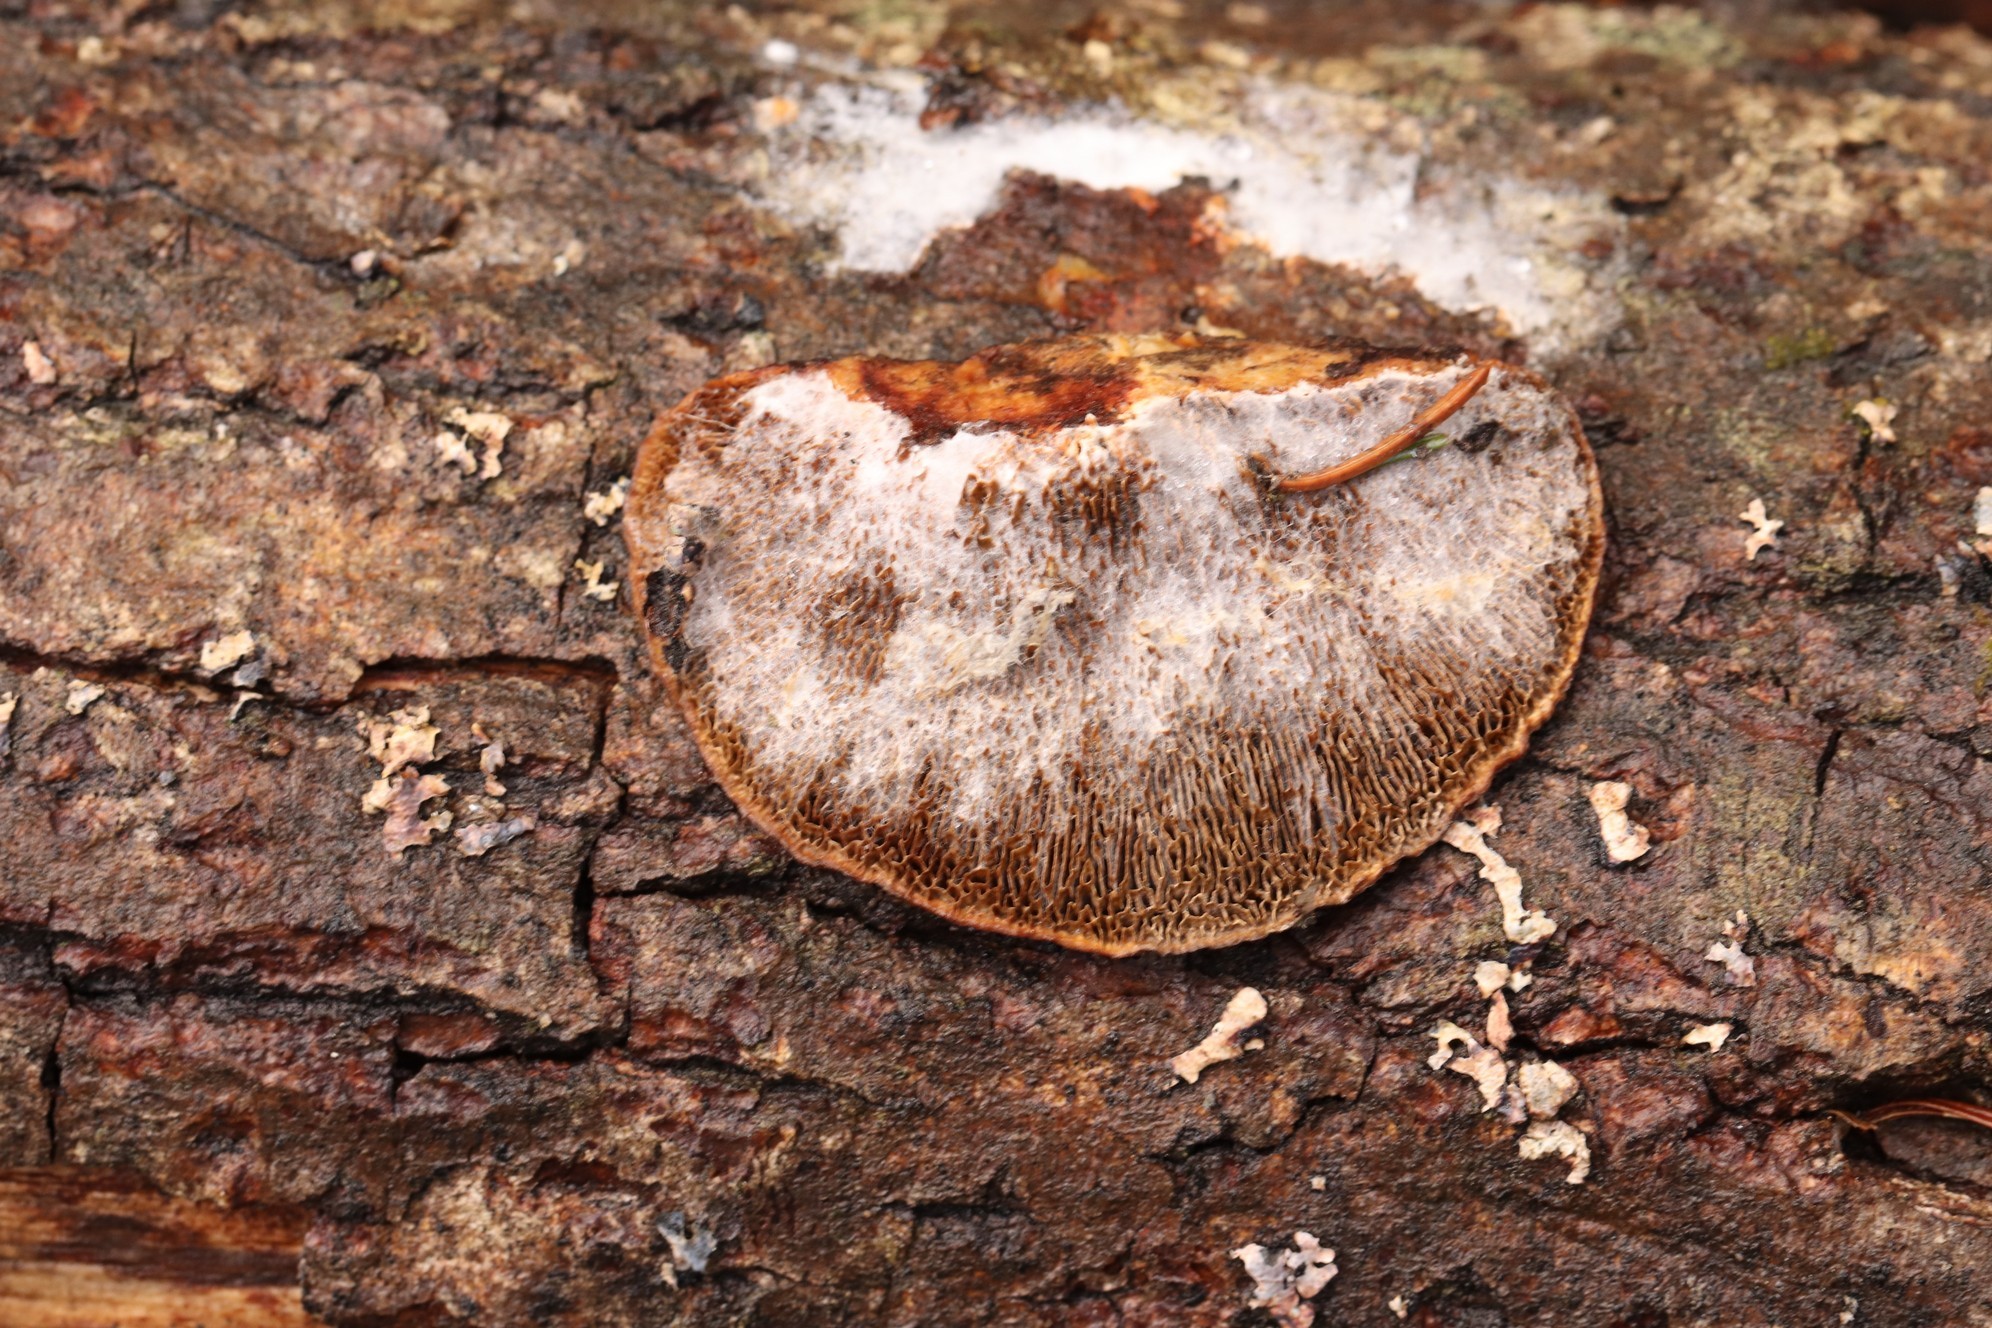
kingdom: Fungi
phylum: Basidiomycota
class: Agaricomycetes
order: Polyporales
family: Polyporaceae
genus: Daedaleopsis
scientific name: Daedaleopsis confragosa
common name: Blushing bracket
